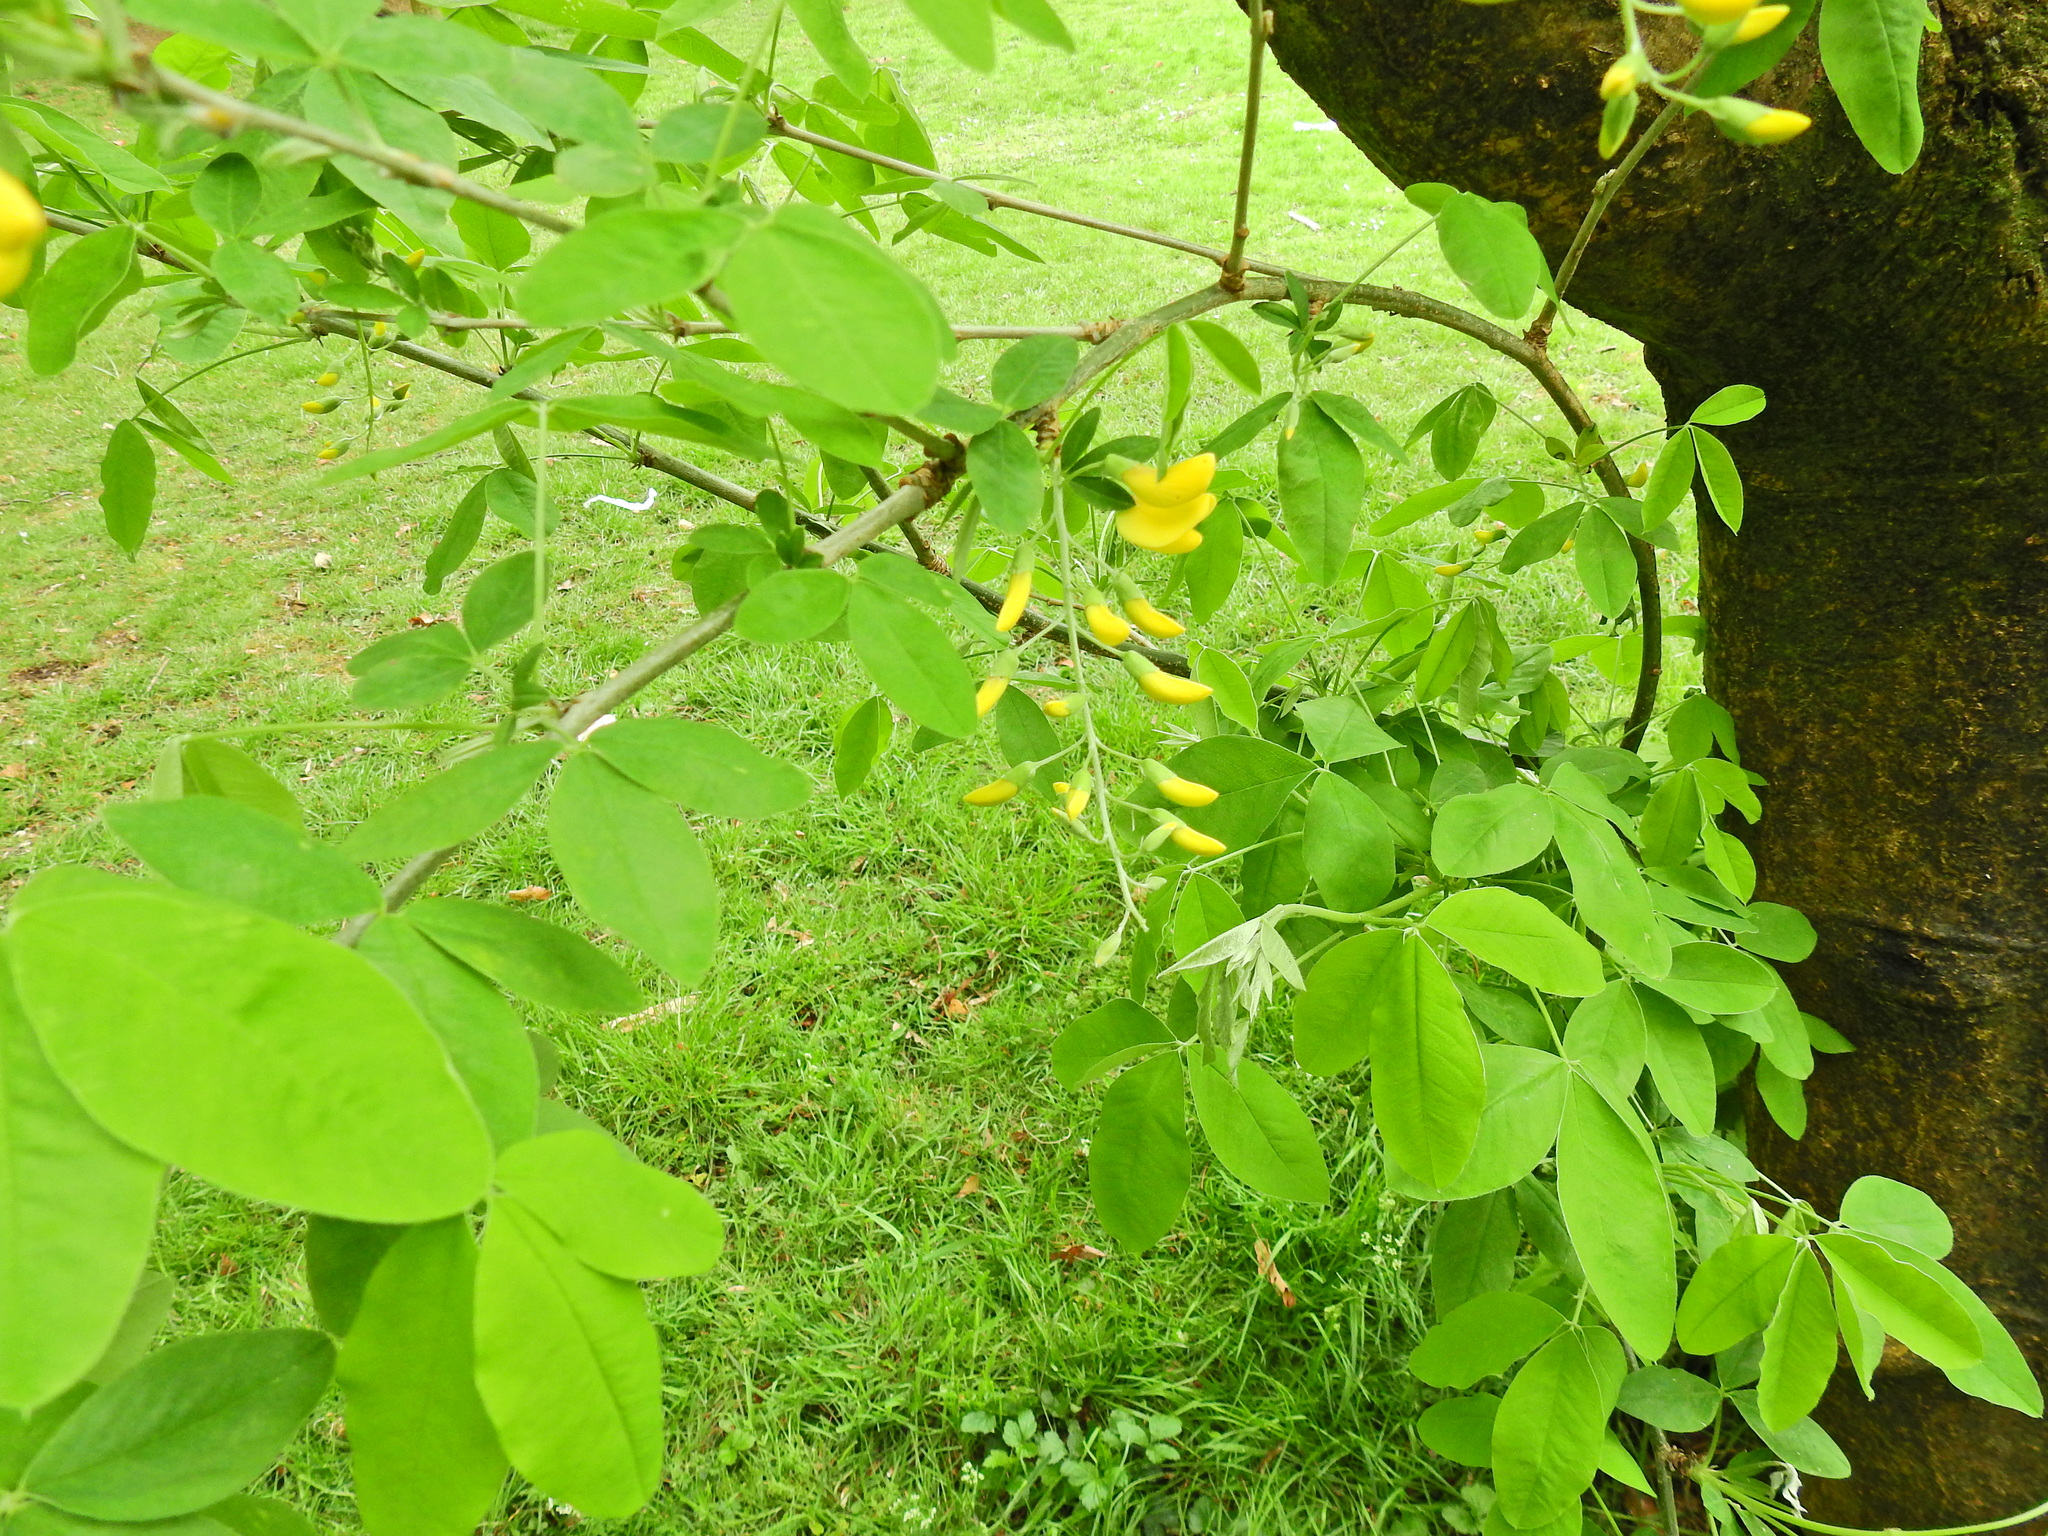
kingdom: Plantae
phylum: Tracheophyta
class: Magnoliopsida
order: Fabales
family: Fabaceae
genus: Laburnum
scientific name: Laburnum anagyroides
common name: Laburnum
